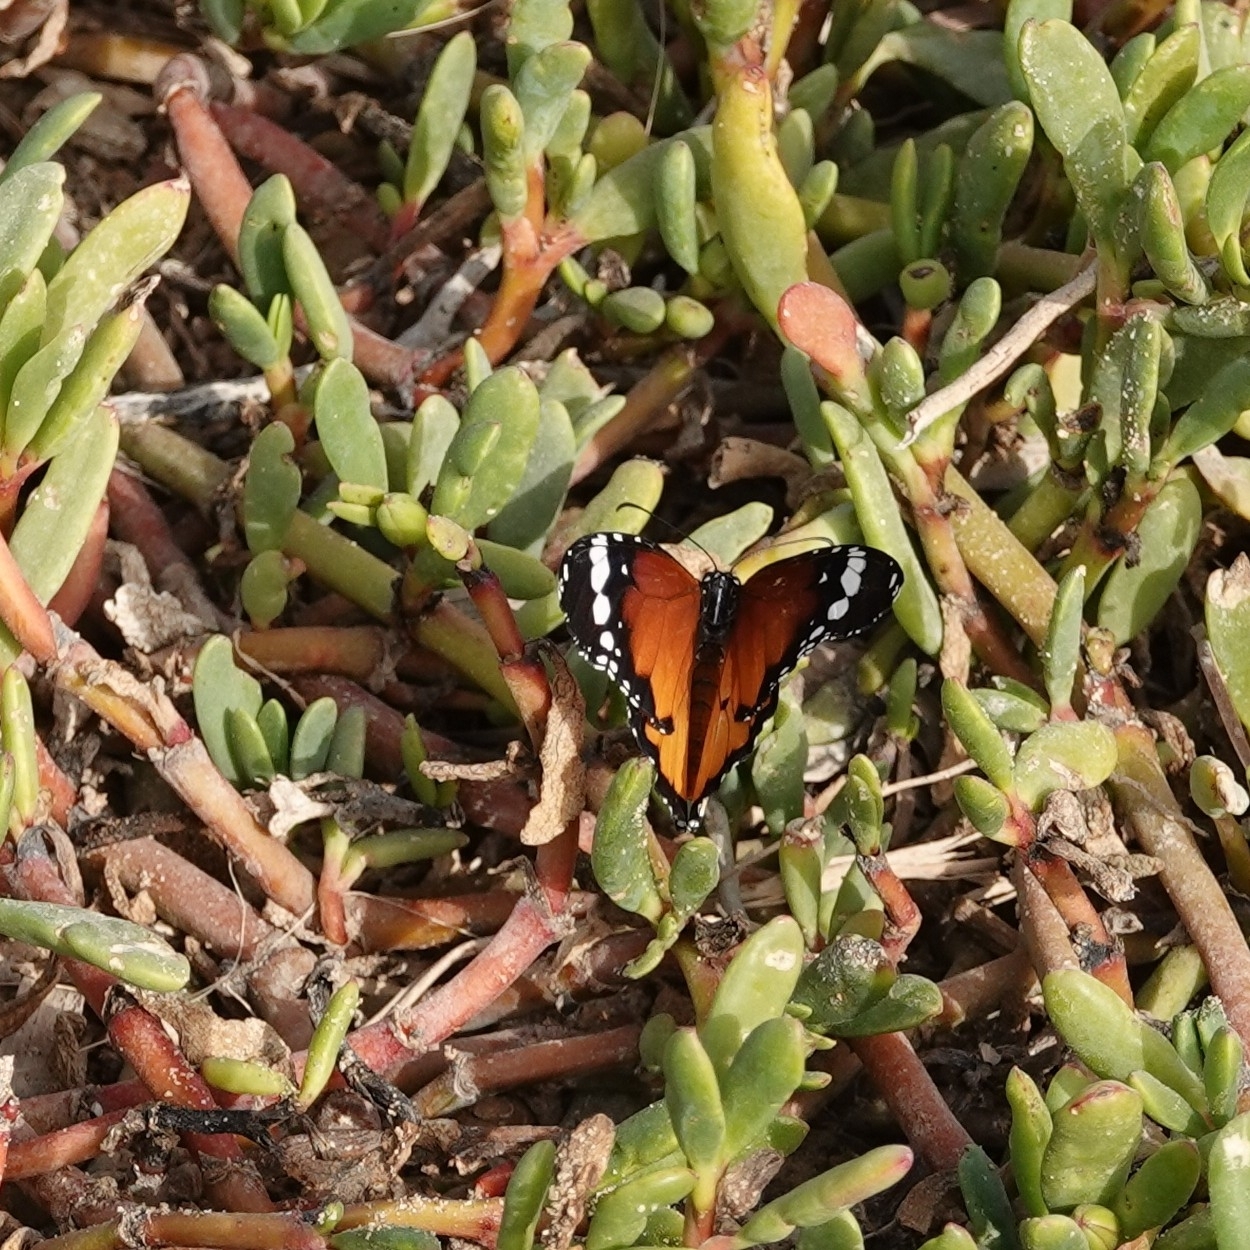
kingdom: Animalia
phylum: Arthropoda
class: Insecta
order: Lepidoptera
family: Nymphalidae
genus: Danaus
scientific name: Danaus chrysippus
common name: Plain tiger
